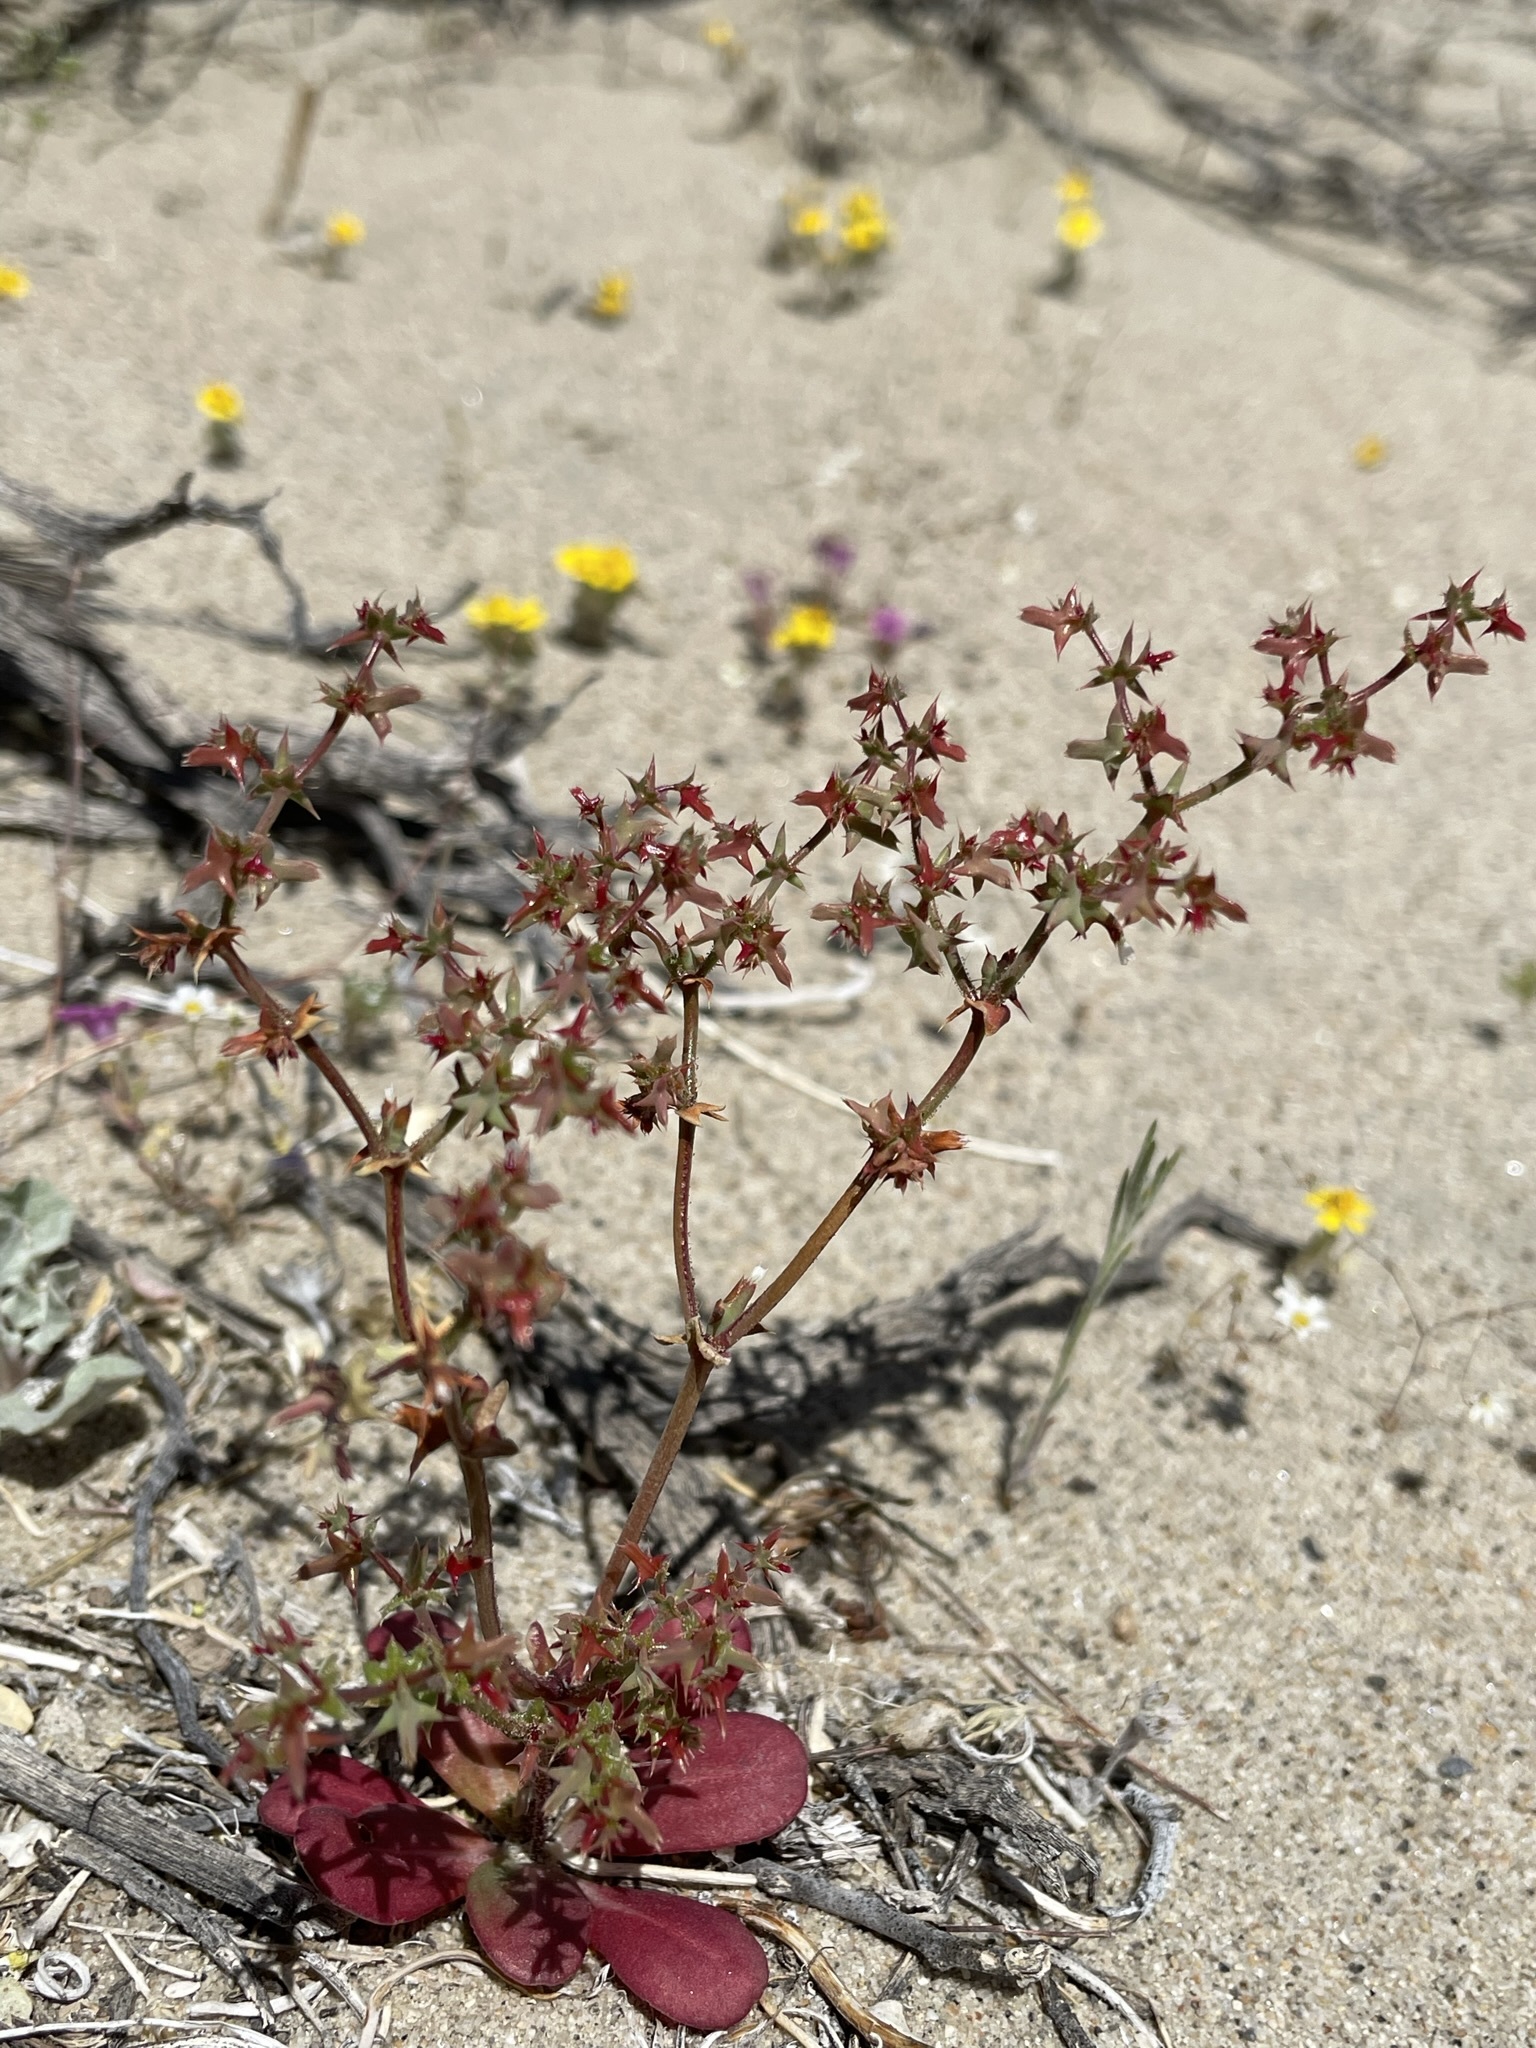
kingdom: Plantae
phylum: Tracheophyta
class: Magnoliopsida
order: Caryophyllales
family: Polygonaceae
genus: Centrostegia
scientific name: Centrostegia thurberi
